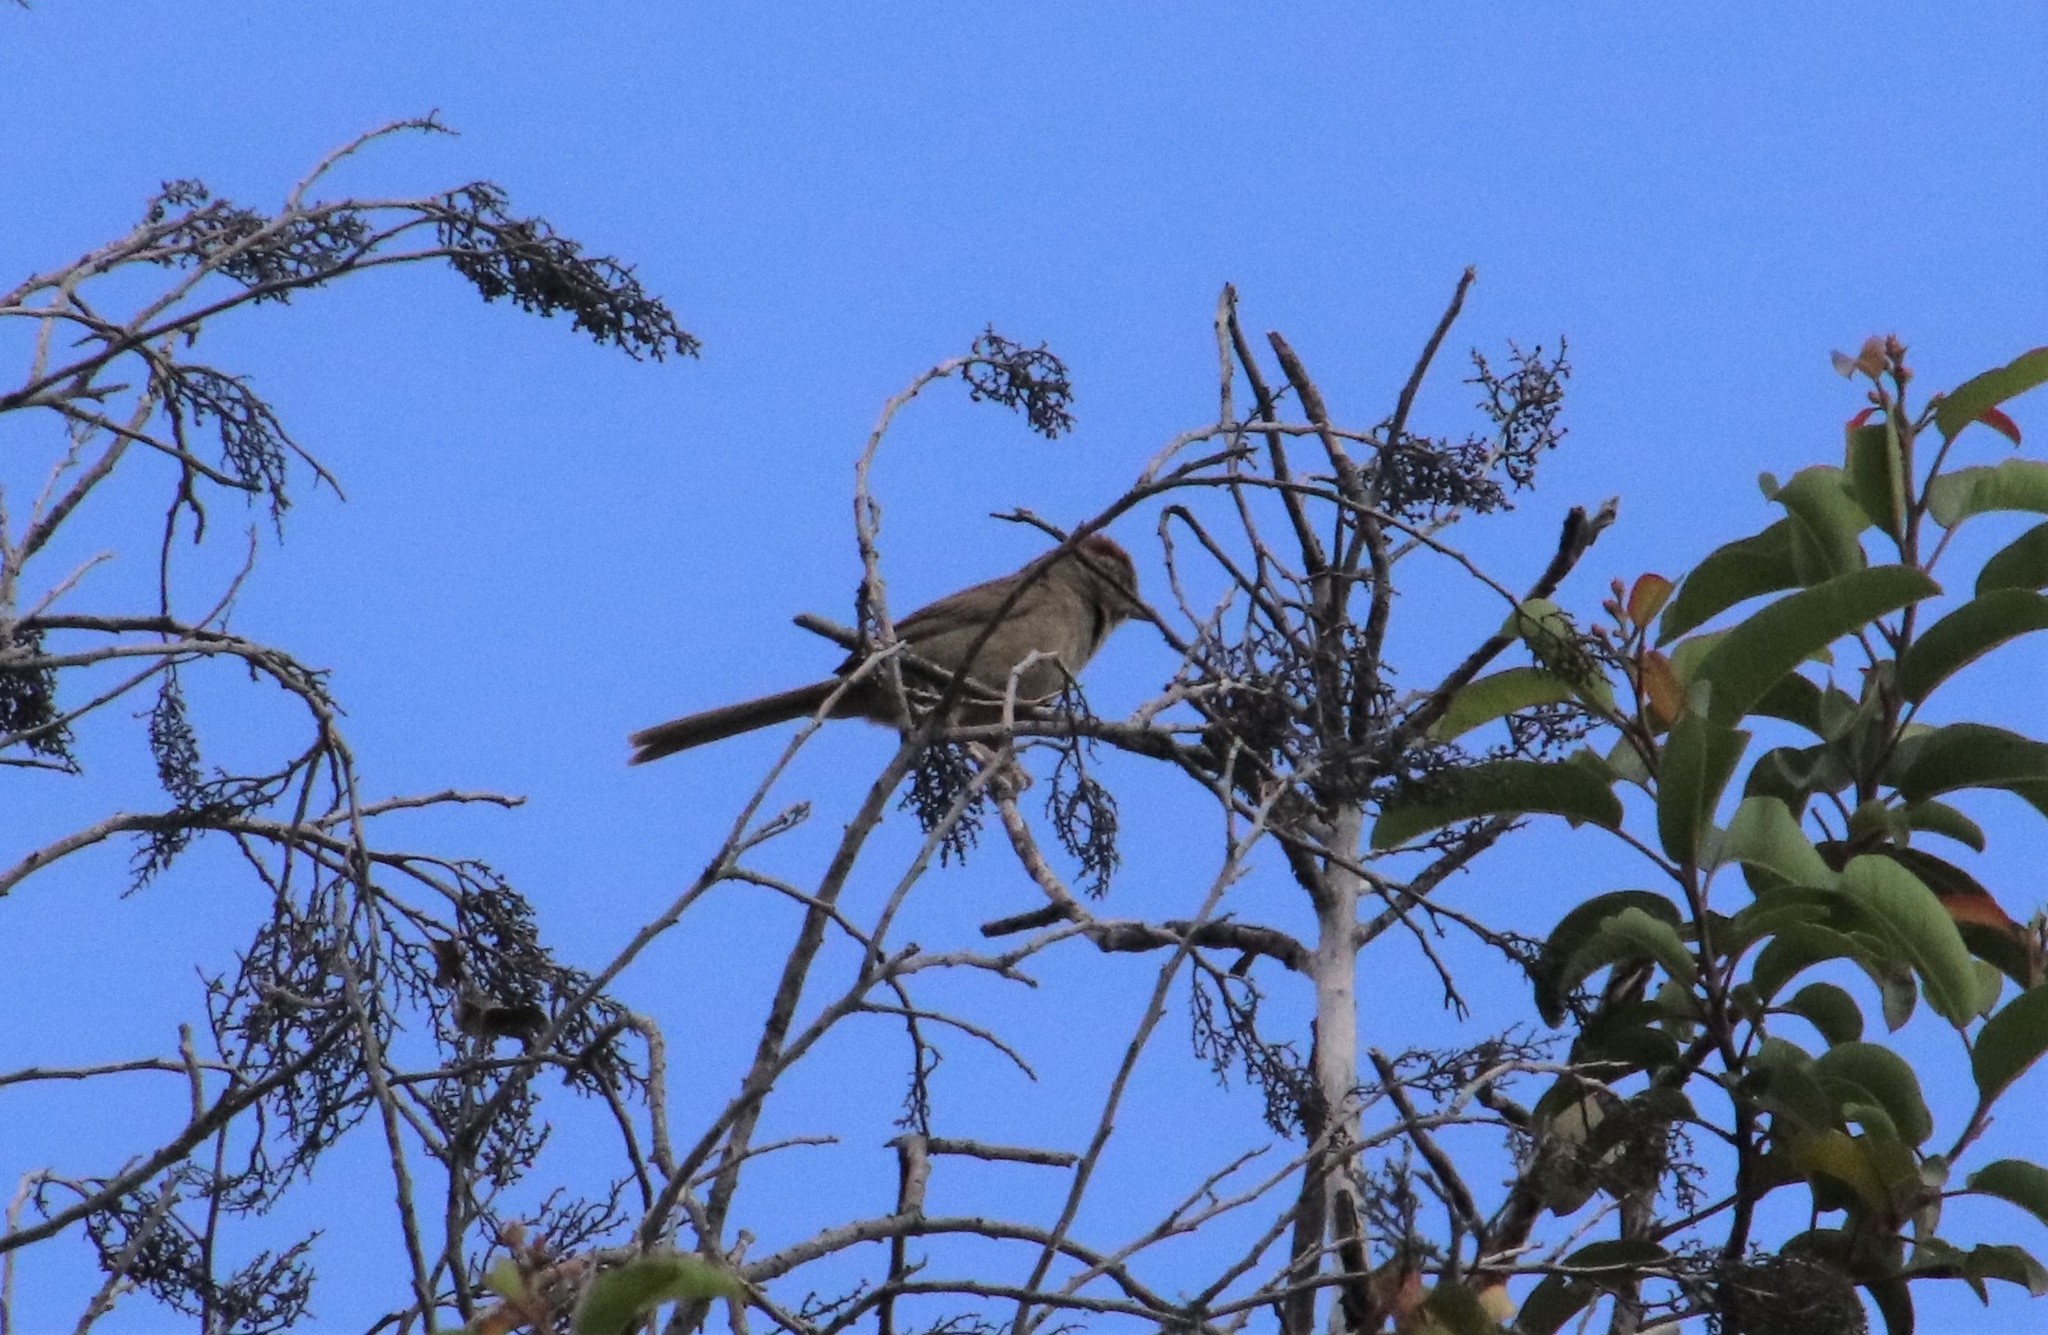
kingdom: Animalia
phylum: Chordata
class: Aves
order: Passeriformes
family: Passerellidae
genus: Aimophila
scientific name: Aimophila ruficeps
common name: Rufous-crowned sparrow
